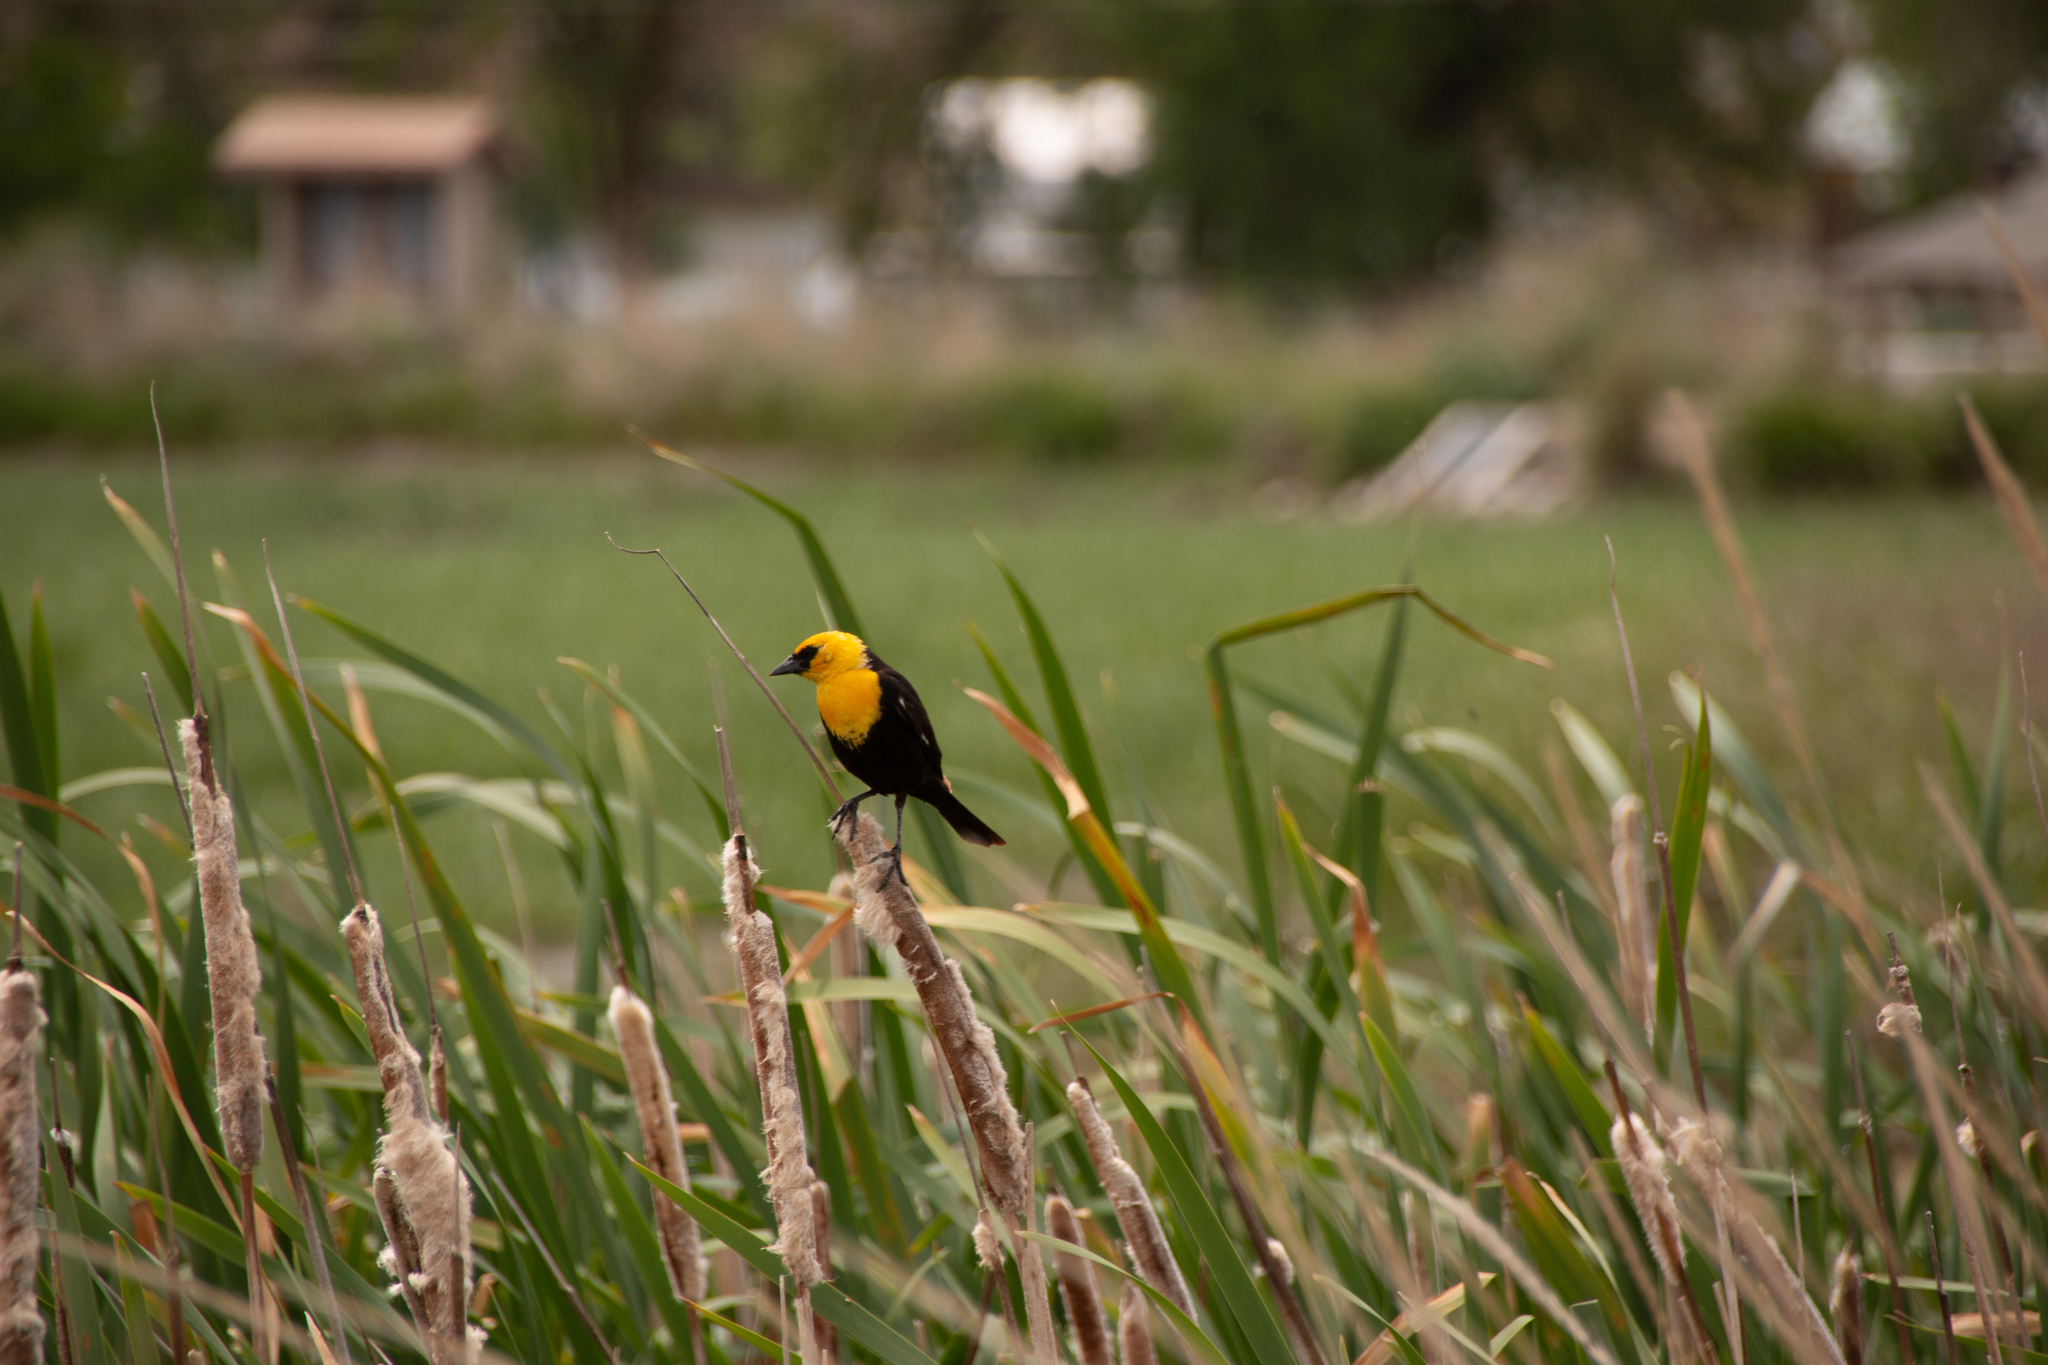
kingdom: Animalia
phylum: Chordata
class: Aves
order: Passeriformes
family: Icteridae
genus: Xanthocephalus
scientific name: Xanthocephalus xanthocephalus
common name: Yellow-headed blackbird
